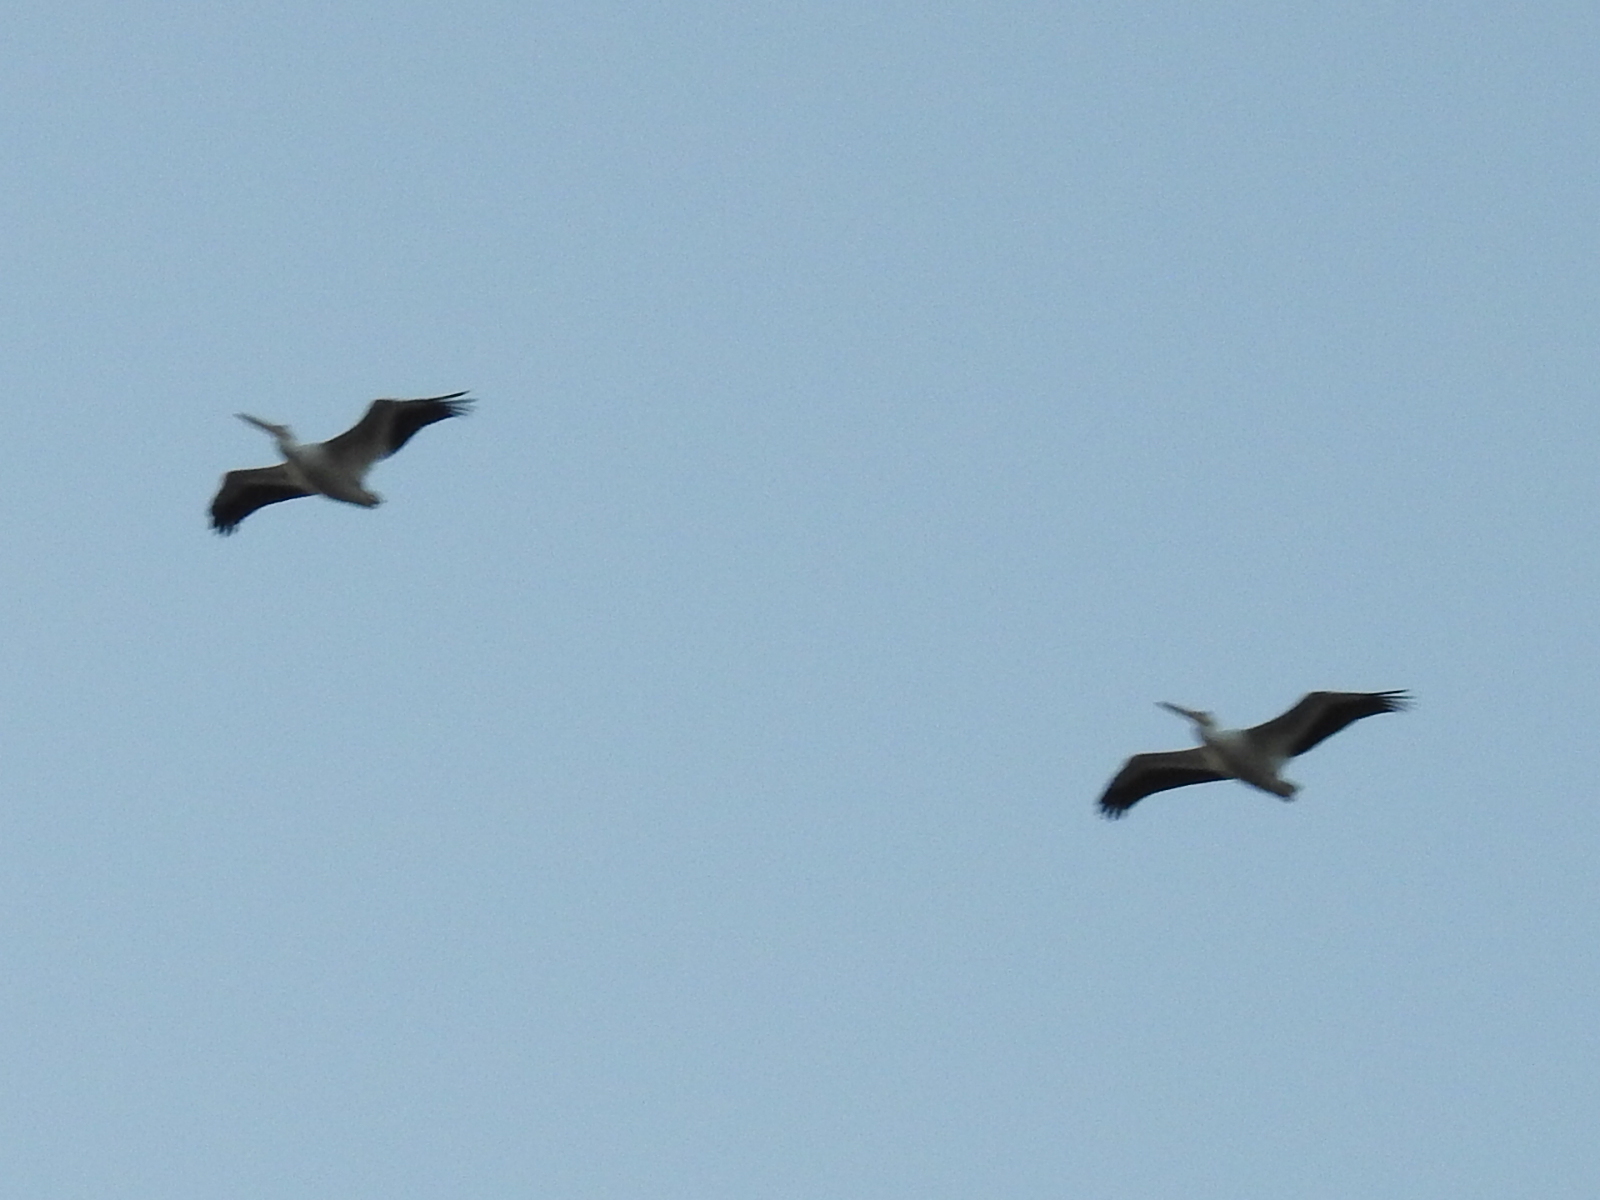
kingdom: Animalia
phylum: Chordata
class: Aves
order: Pelecaniformes
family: Pelecanidae
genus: Pelecanus
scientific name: Pelecanus erythrorhynchos
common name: American white pelican
